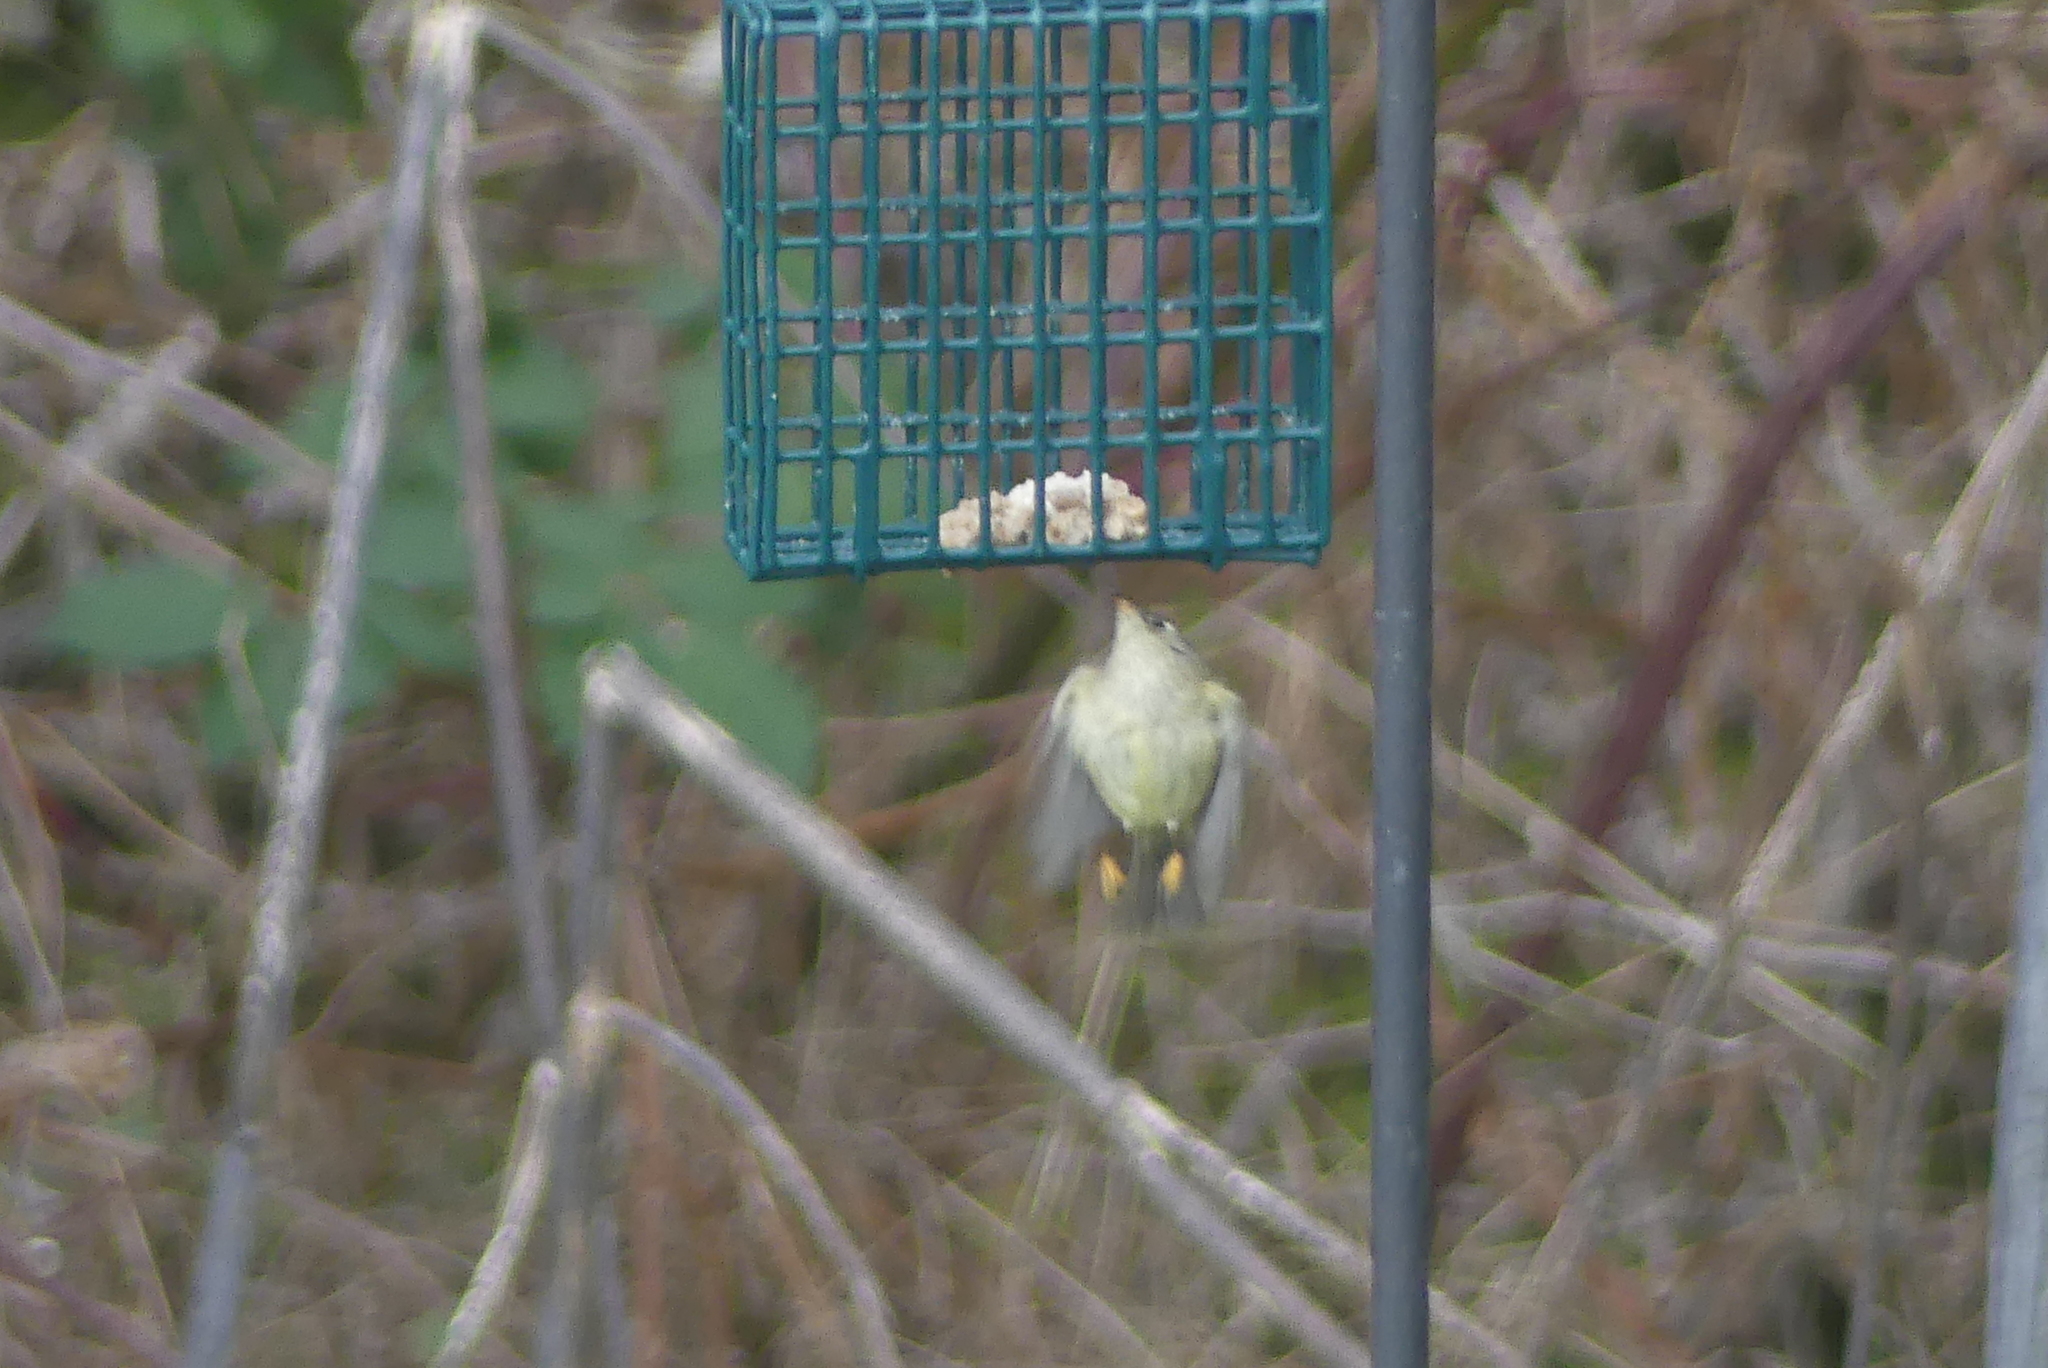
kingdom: Animalia
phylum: Chordata
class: Aves
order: Passeriformes
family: Regulidae
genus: Regulus
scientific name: Regulus calendula
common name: Ruby-crowned kinglet
